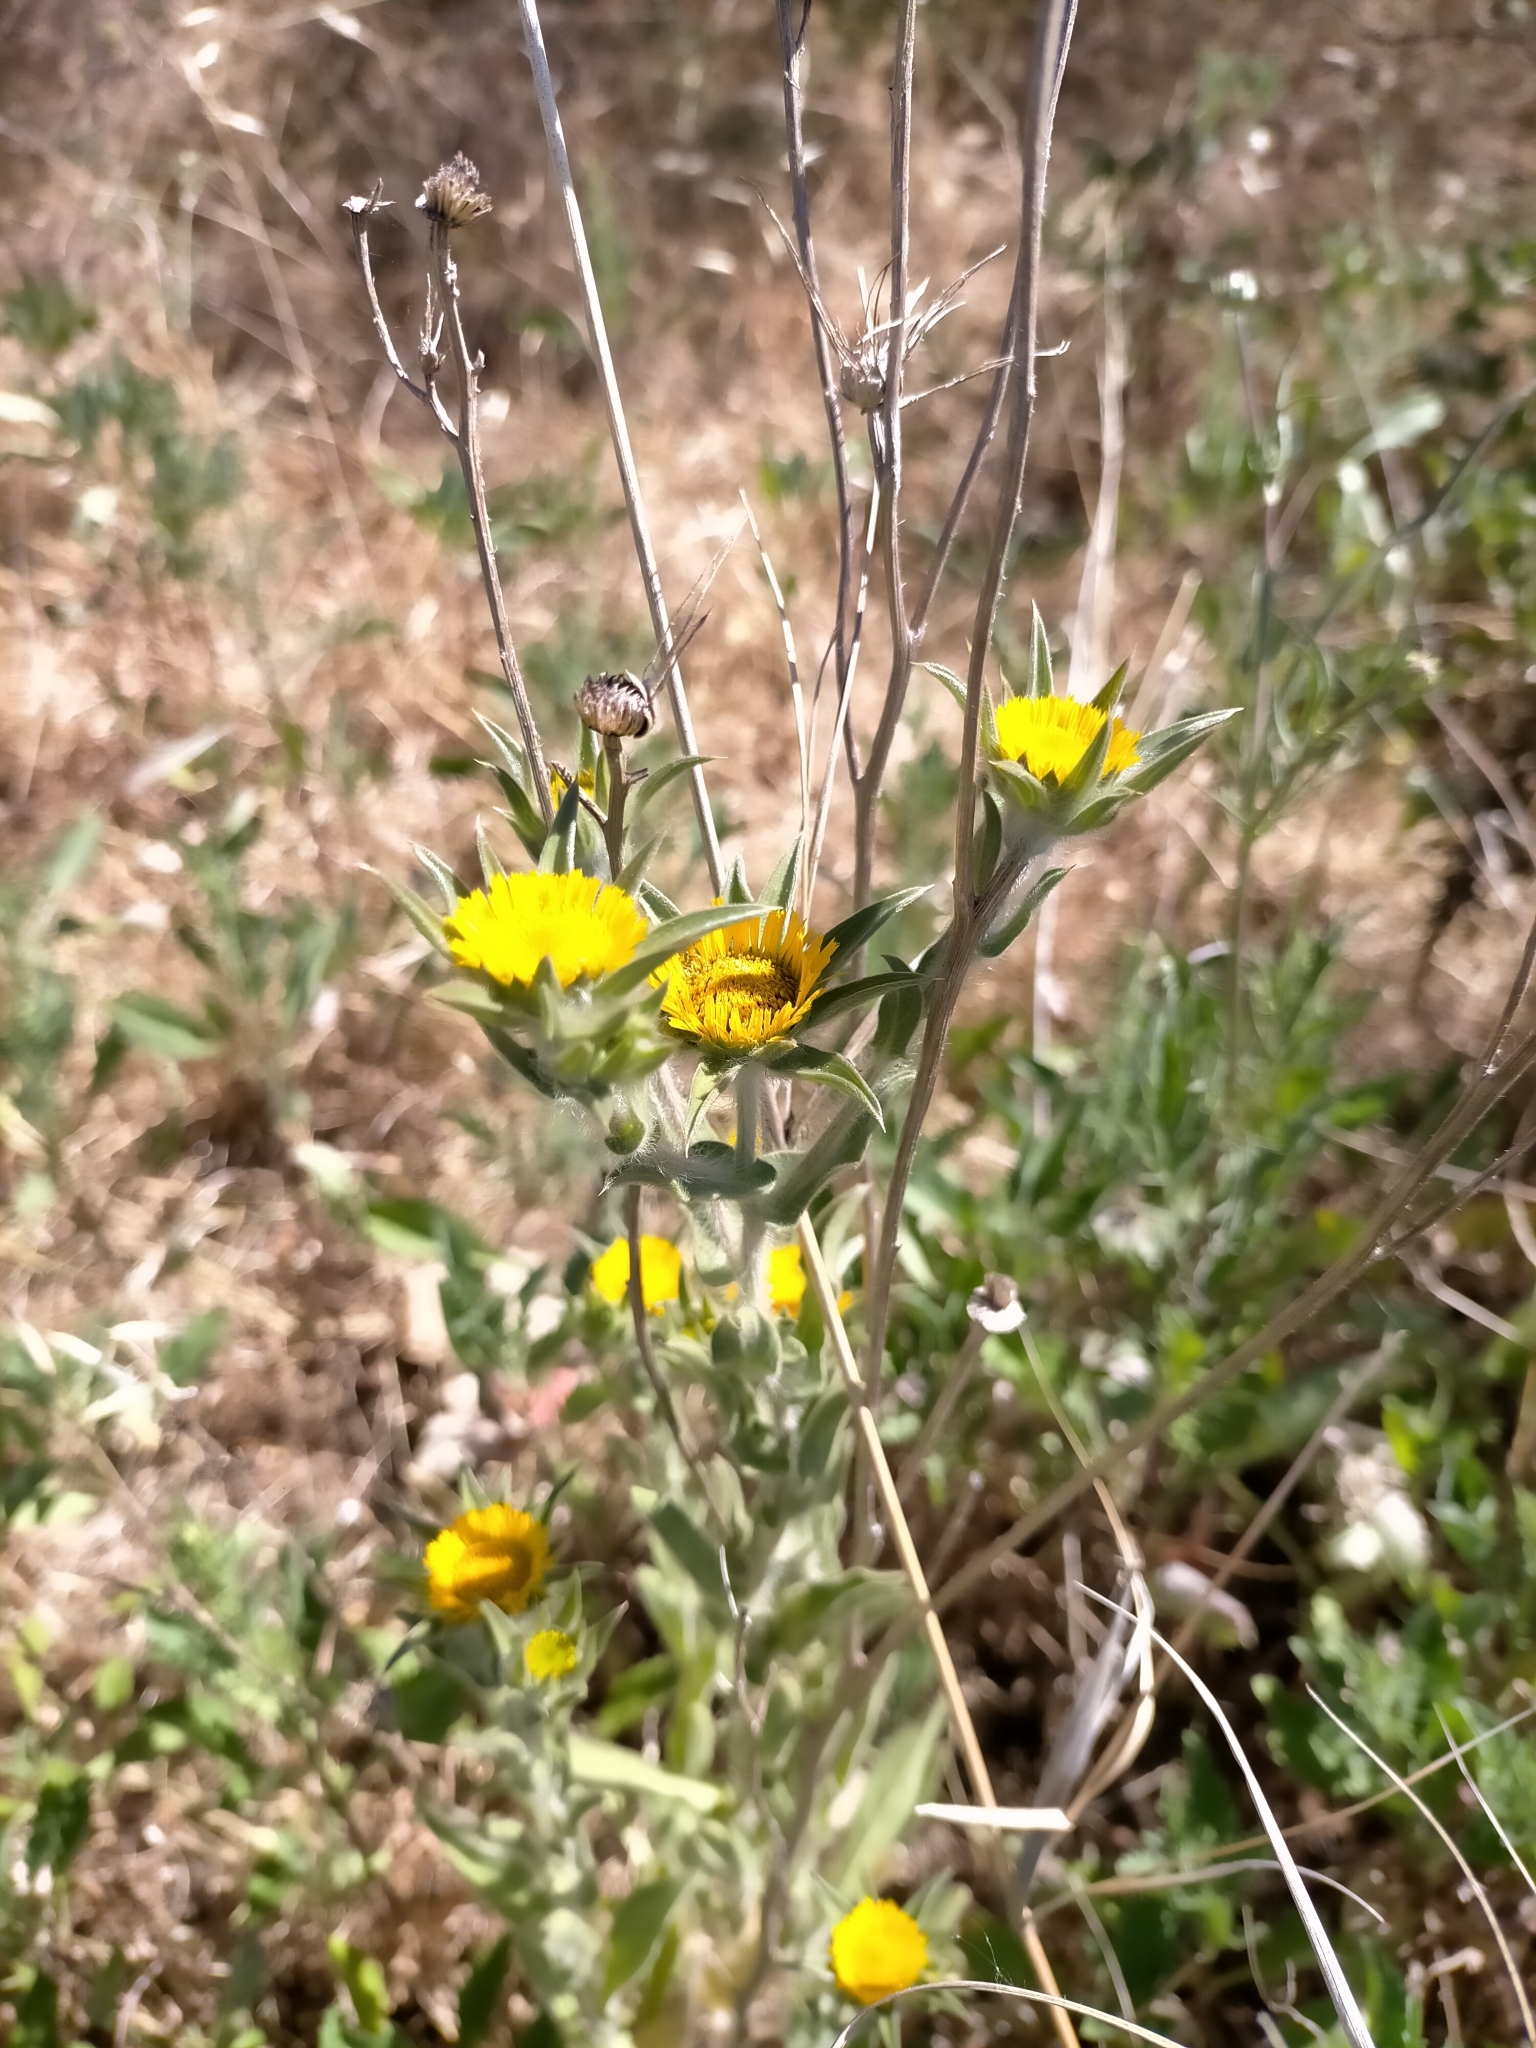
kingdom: Plantae
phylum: Tracheophyta
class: Magnoliopsida
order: Asterales
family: Asteraceae
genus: Pallenis
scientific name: Pallenis spinosa
